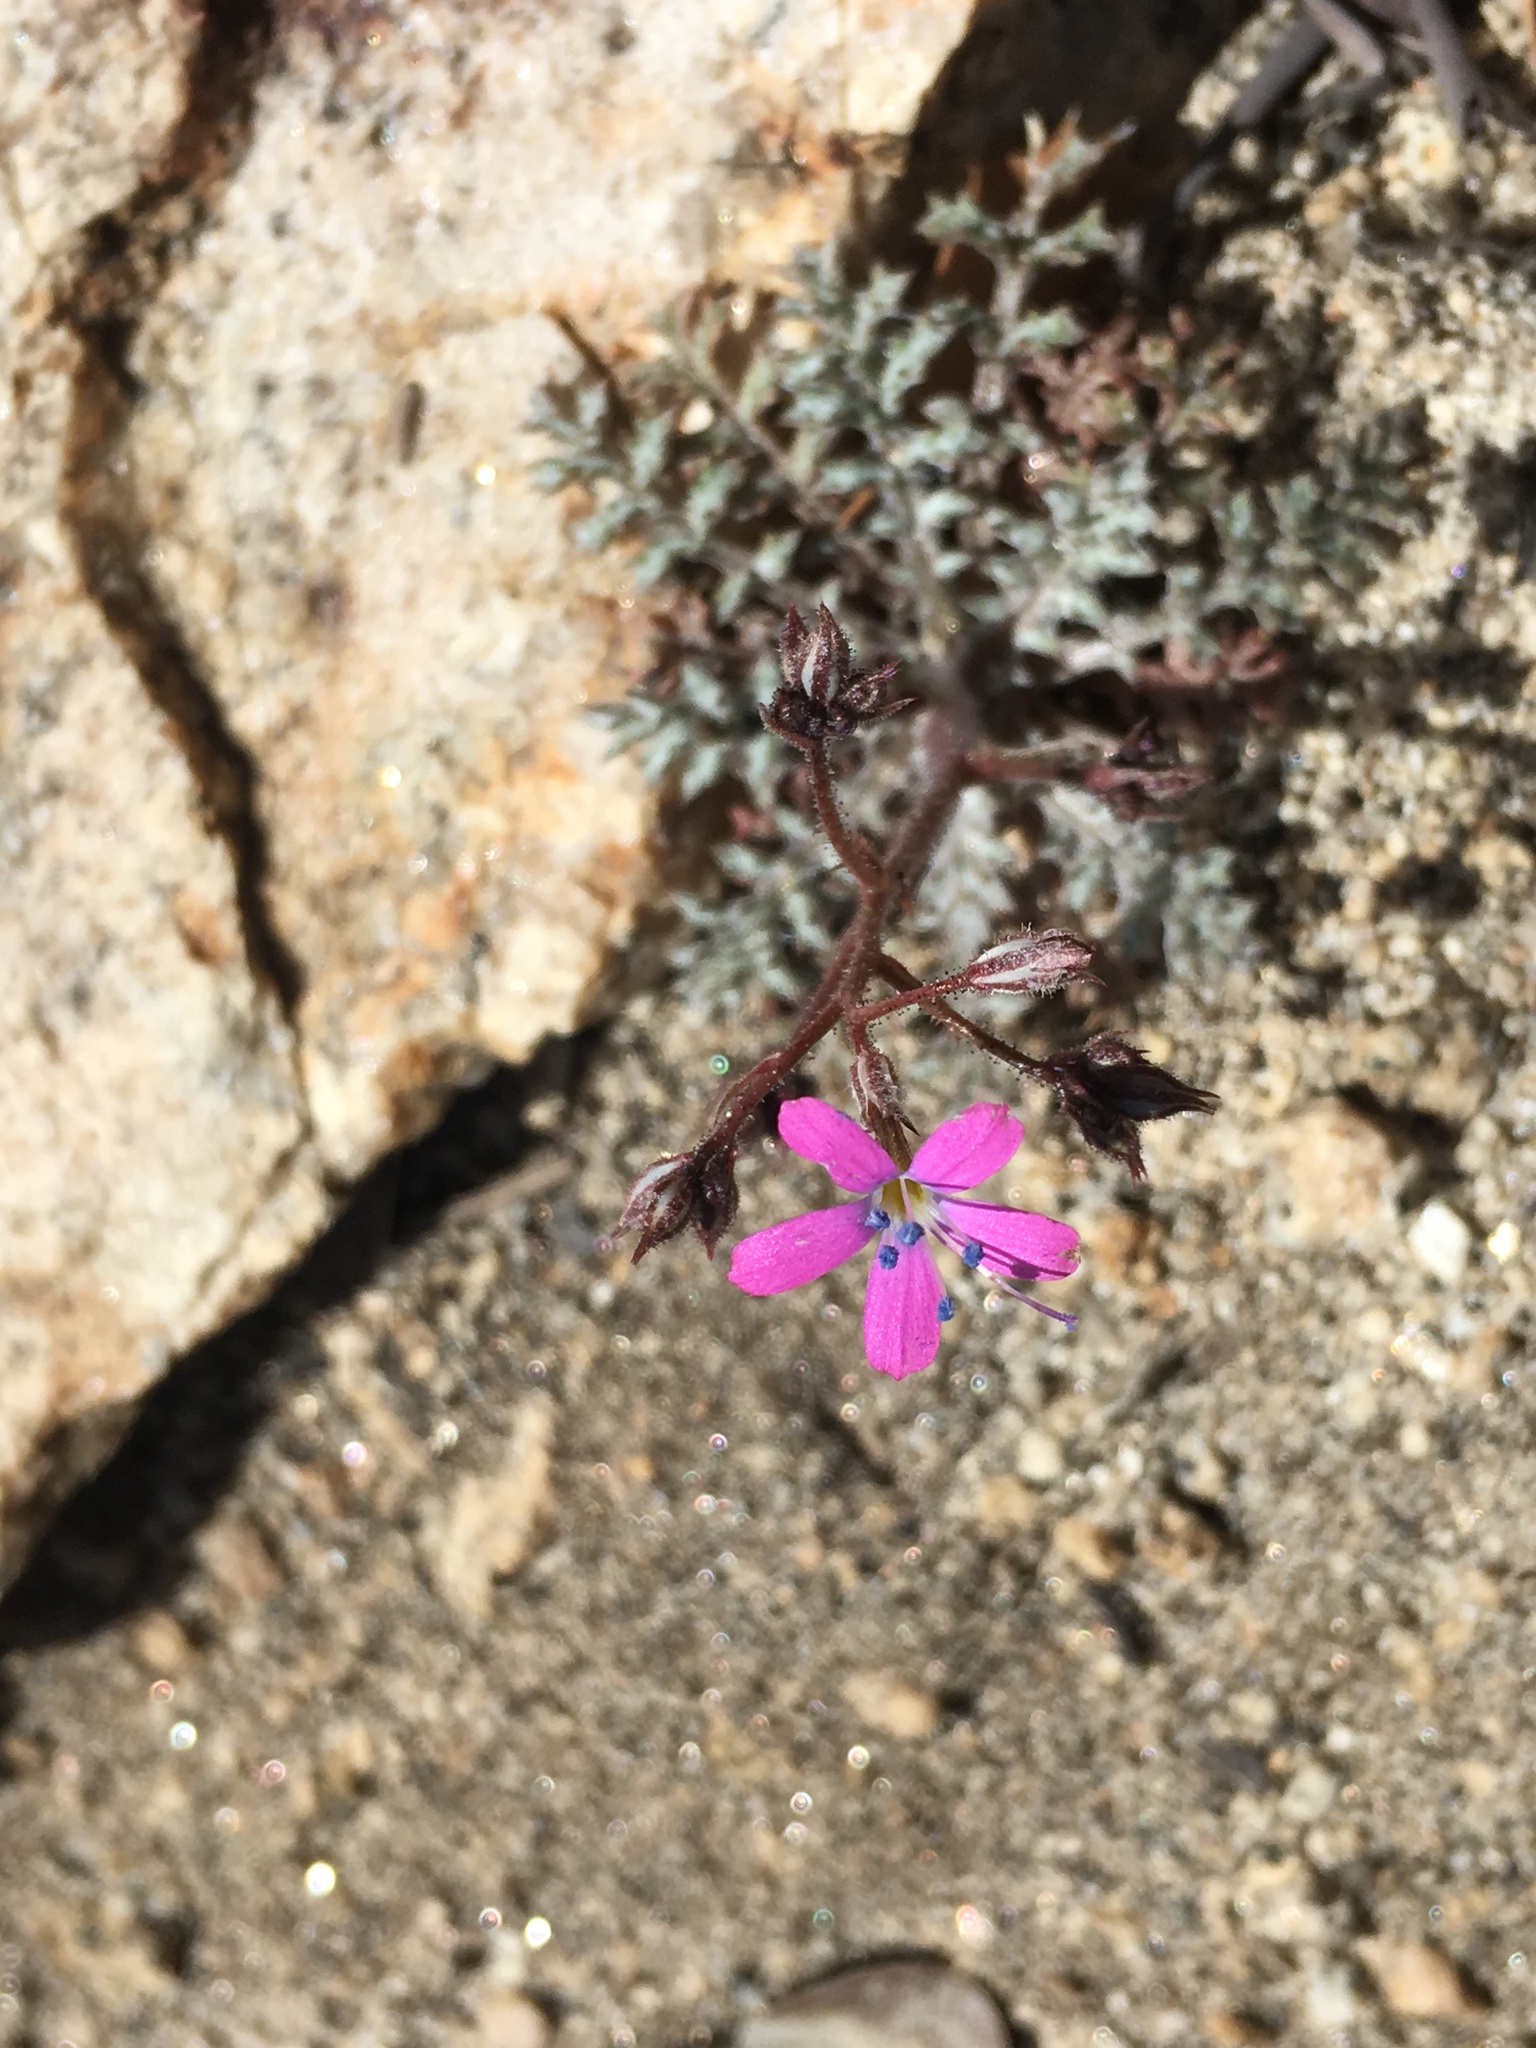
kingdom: Plantae
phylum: Tracheophyta
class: Magnoliopsida
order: Ericales
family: Polemoniaceae
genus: Gilia
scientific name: Gilia leptantha
